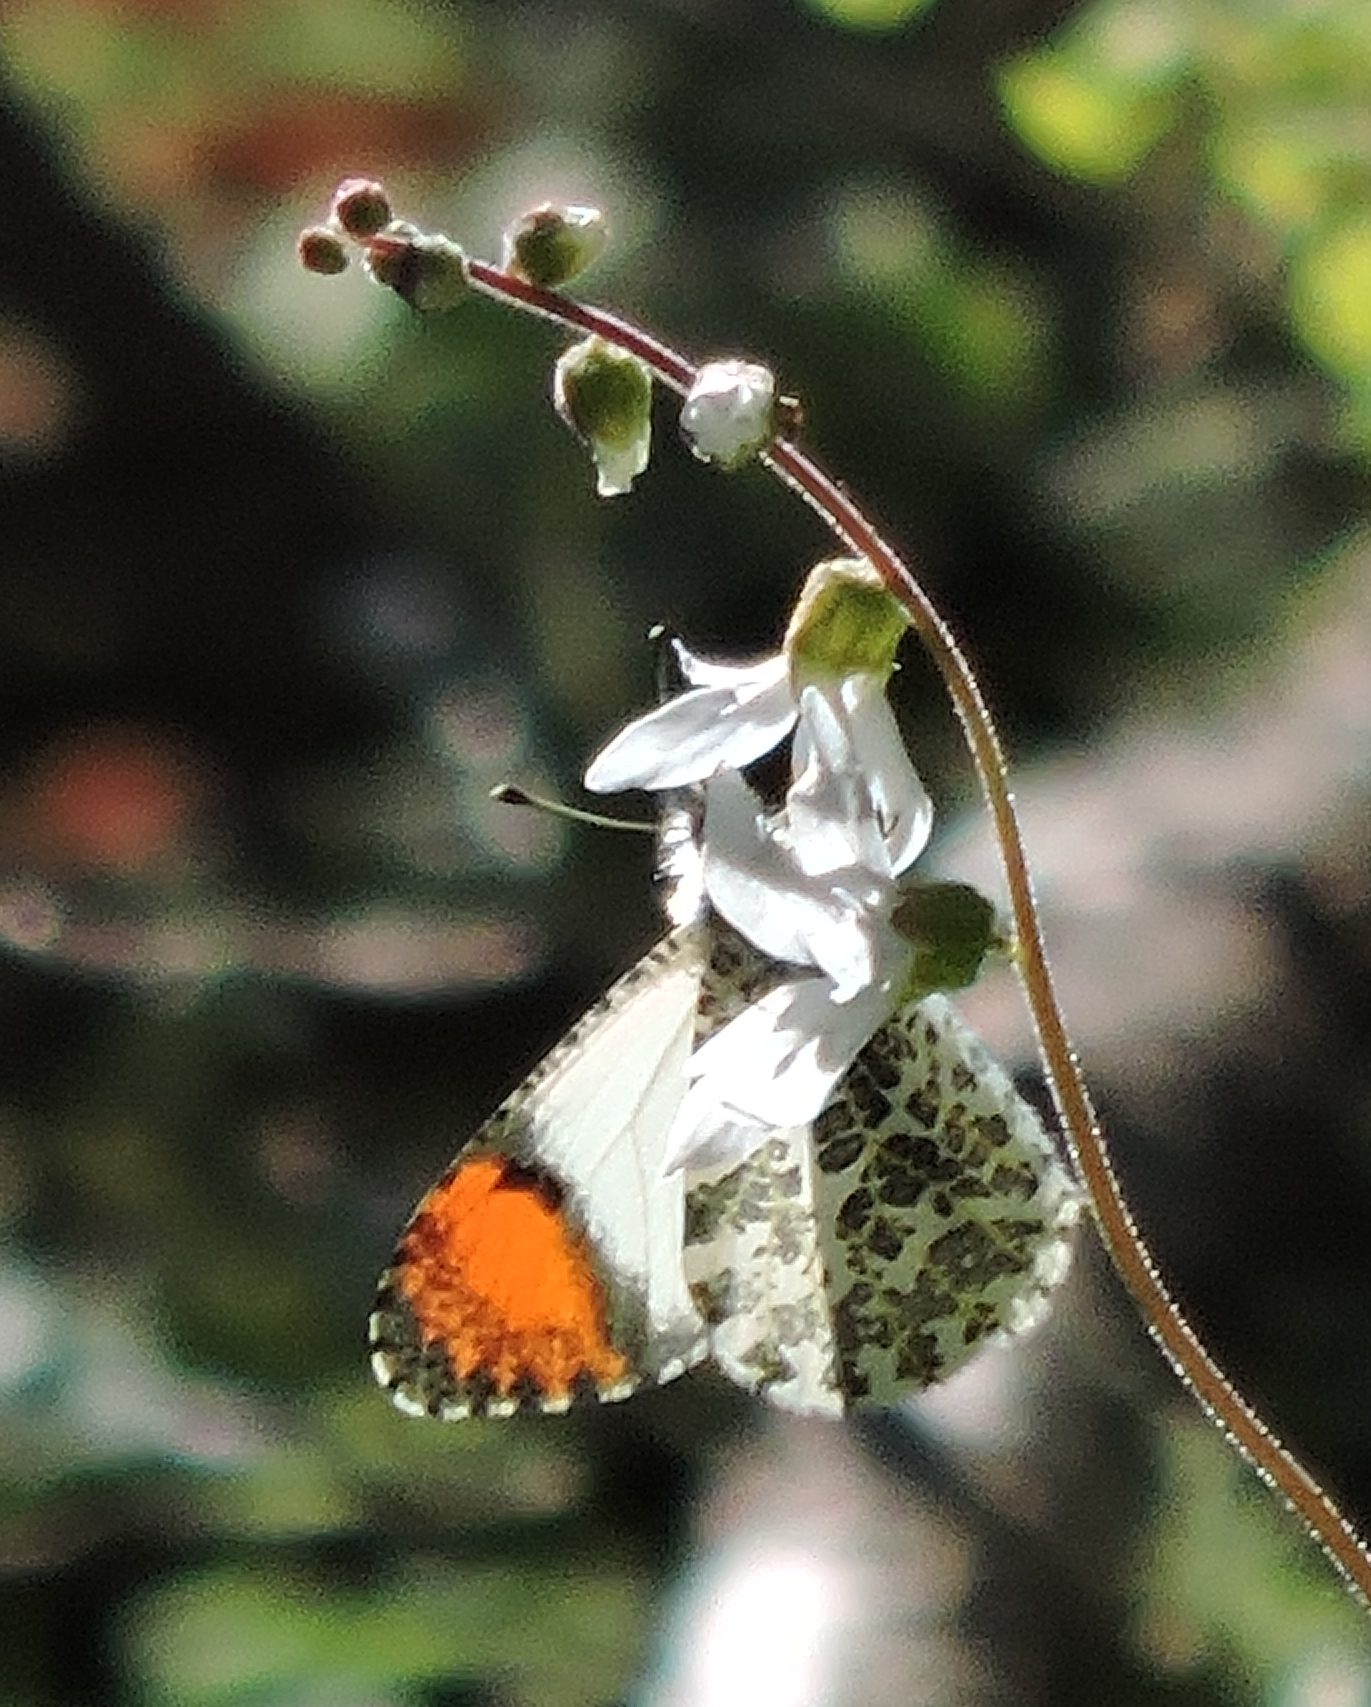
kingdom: Animalia
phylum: Arthropoda
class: Insecta
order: Lepidoptera
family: Pieridae
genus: Anthocharis
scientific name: Anthocharis sara
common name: Sara's orangetip
